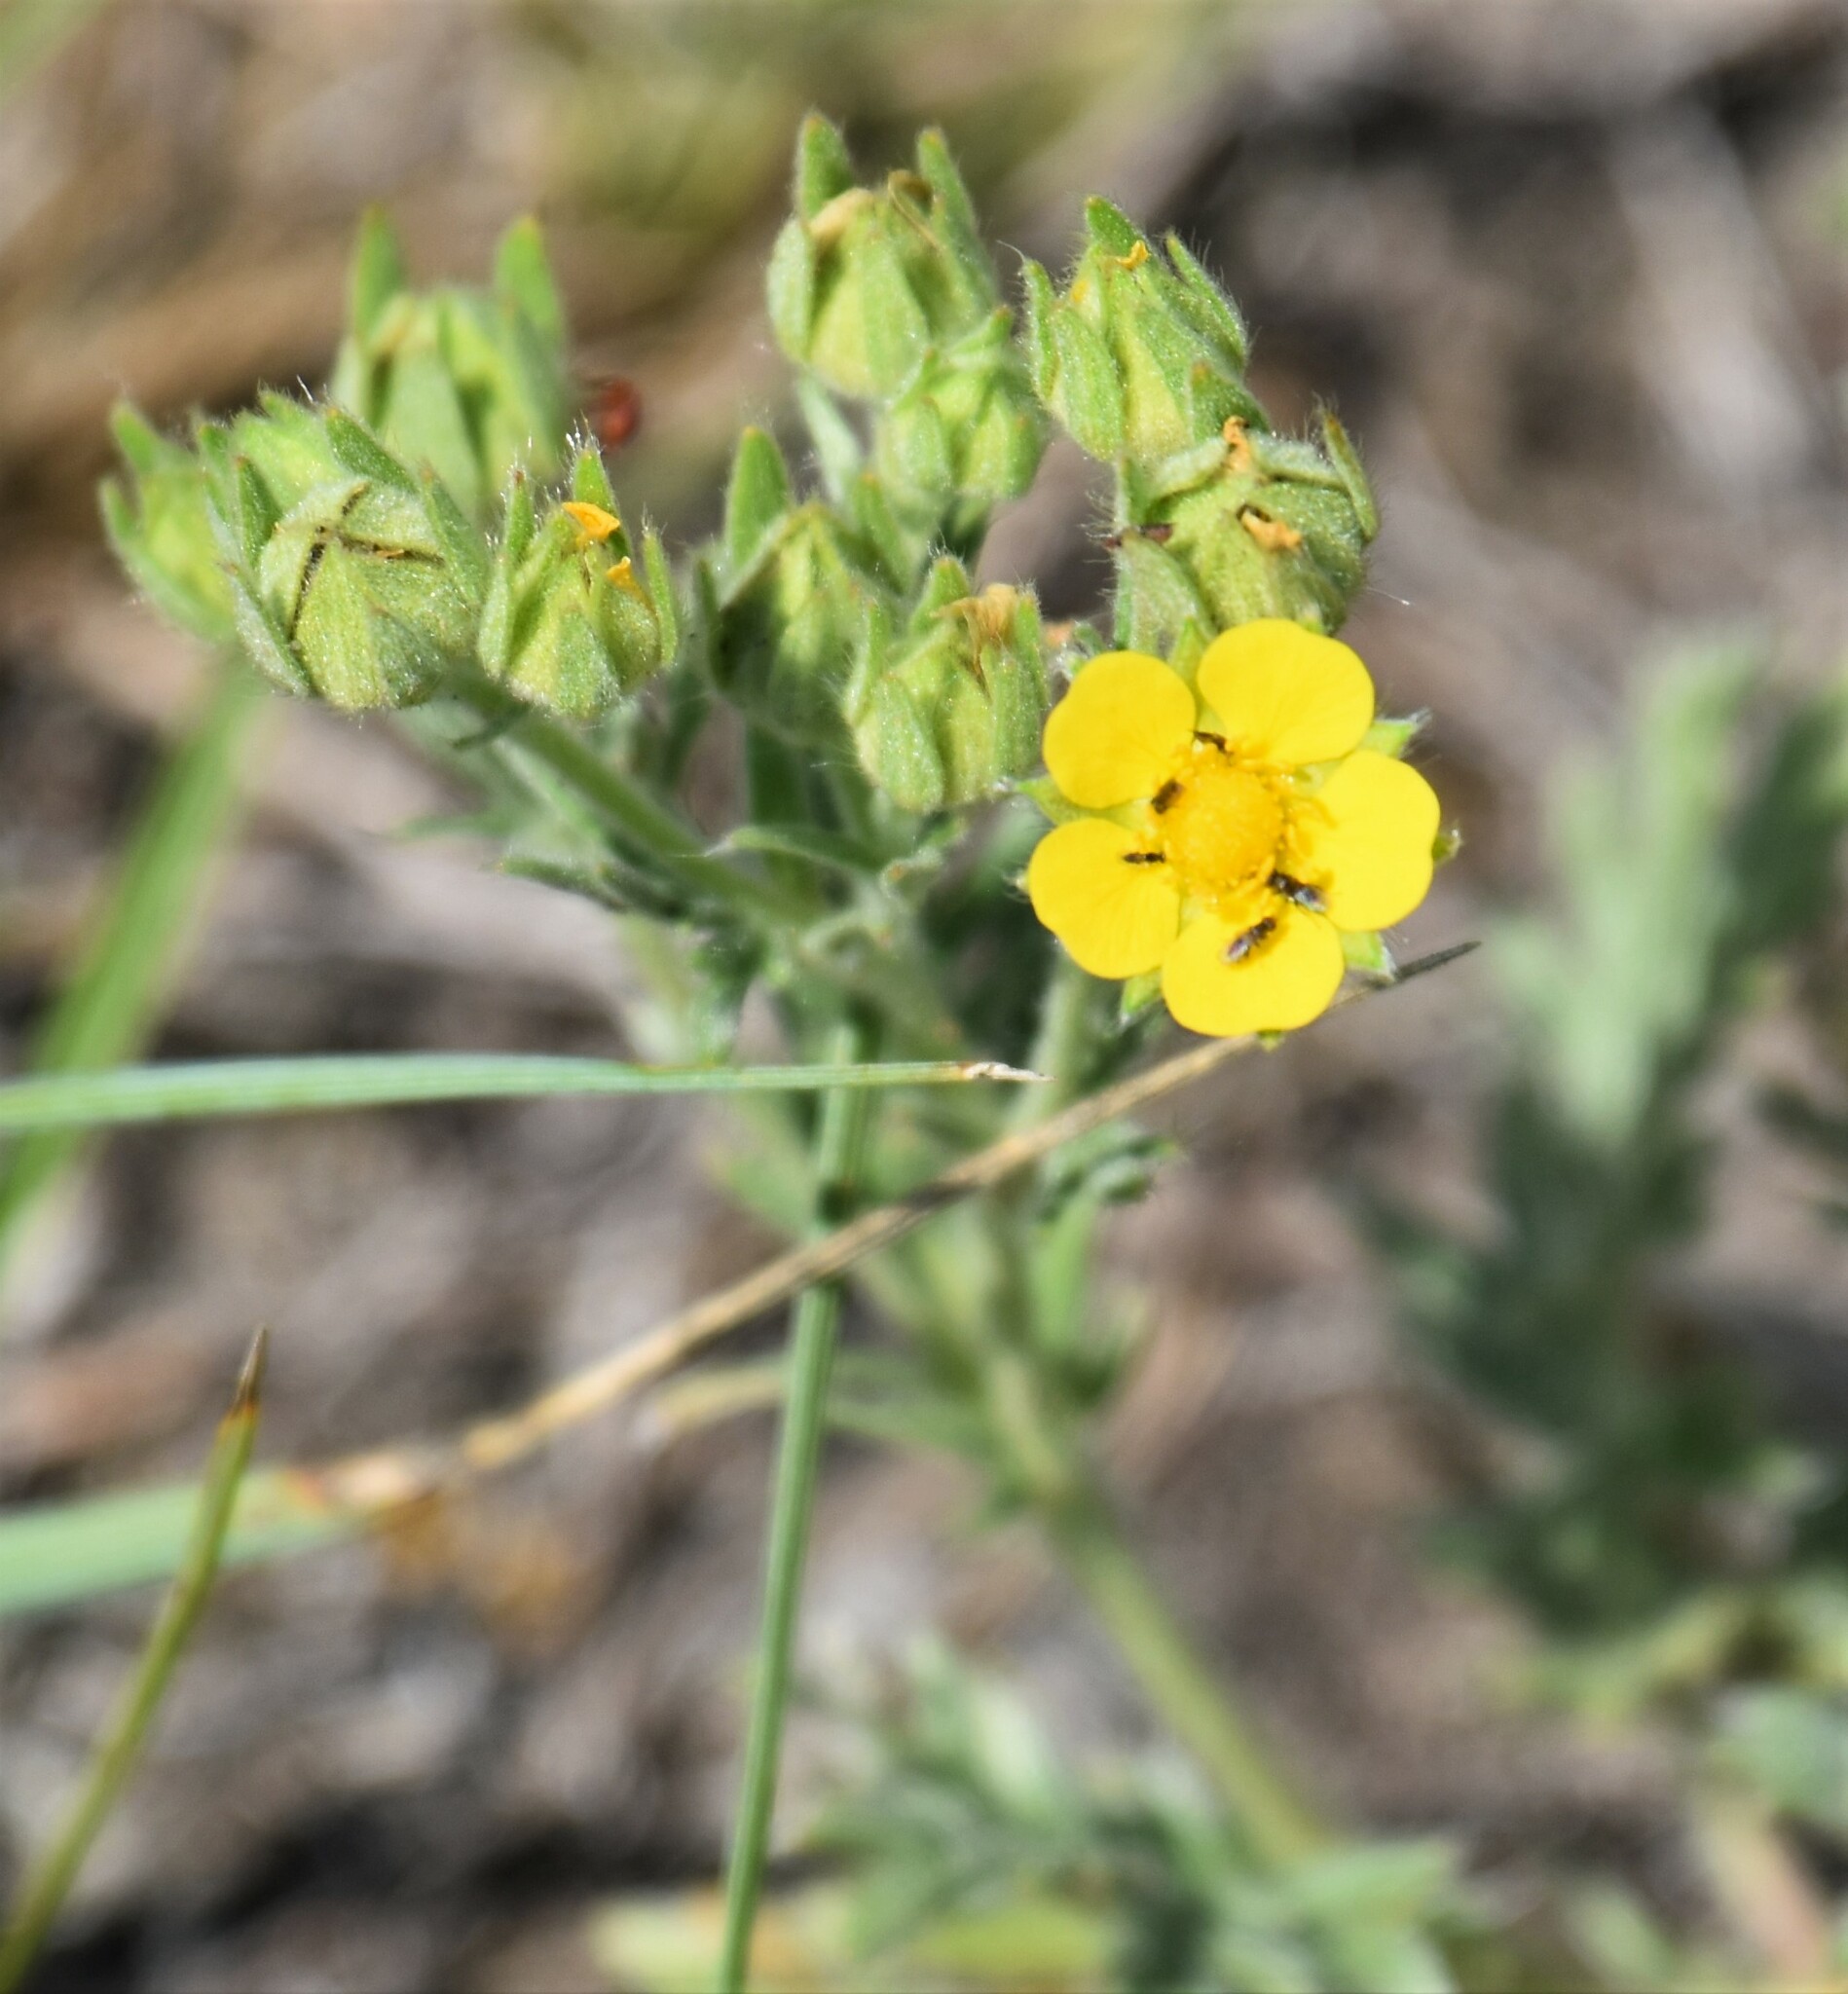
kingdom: Plantae
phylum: Tracheophyta
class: Magnoliopsida
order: Rosales
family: Rosaceae
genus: Potentilla
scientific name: Potentilla pensylvanica
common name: Pennsylvania cinquefoil
